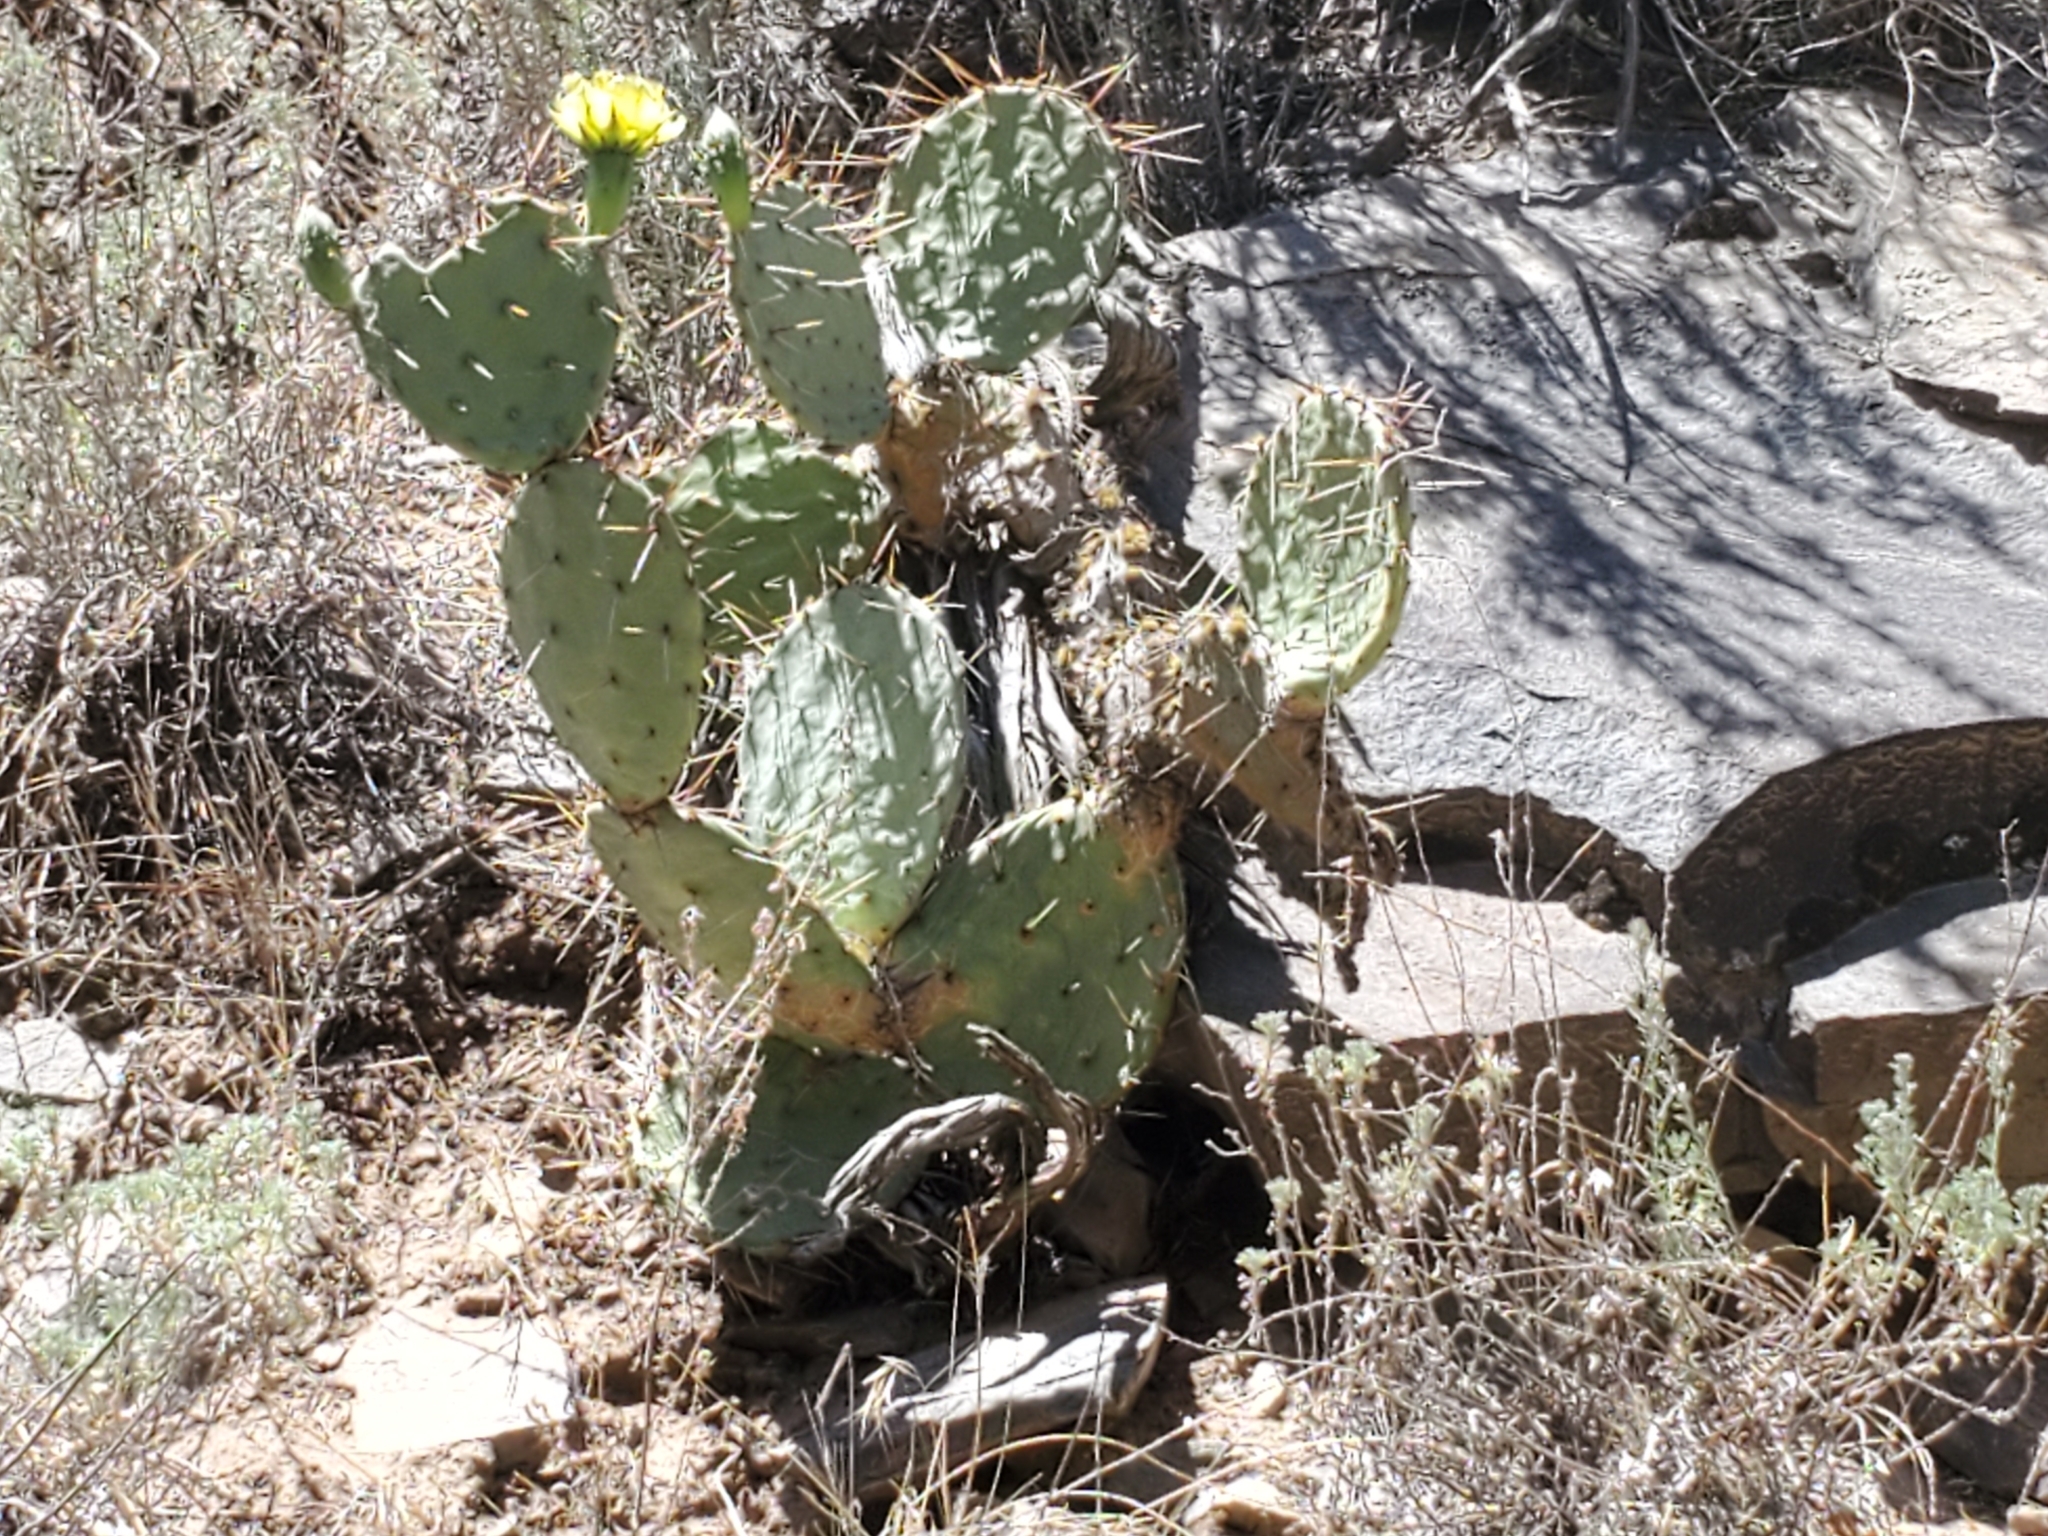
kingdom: Plantae
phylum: Tracheophyta
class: Magnoliopsida
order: Caryophyllales
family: Cactaceae
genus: Opuntia
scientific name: Opuntia phaeacantha
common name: New mexico prickly-pear
